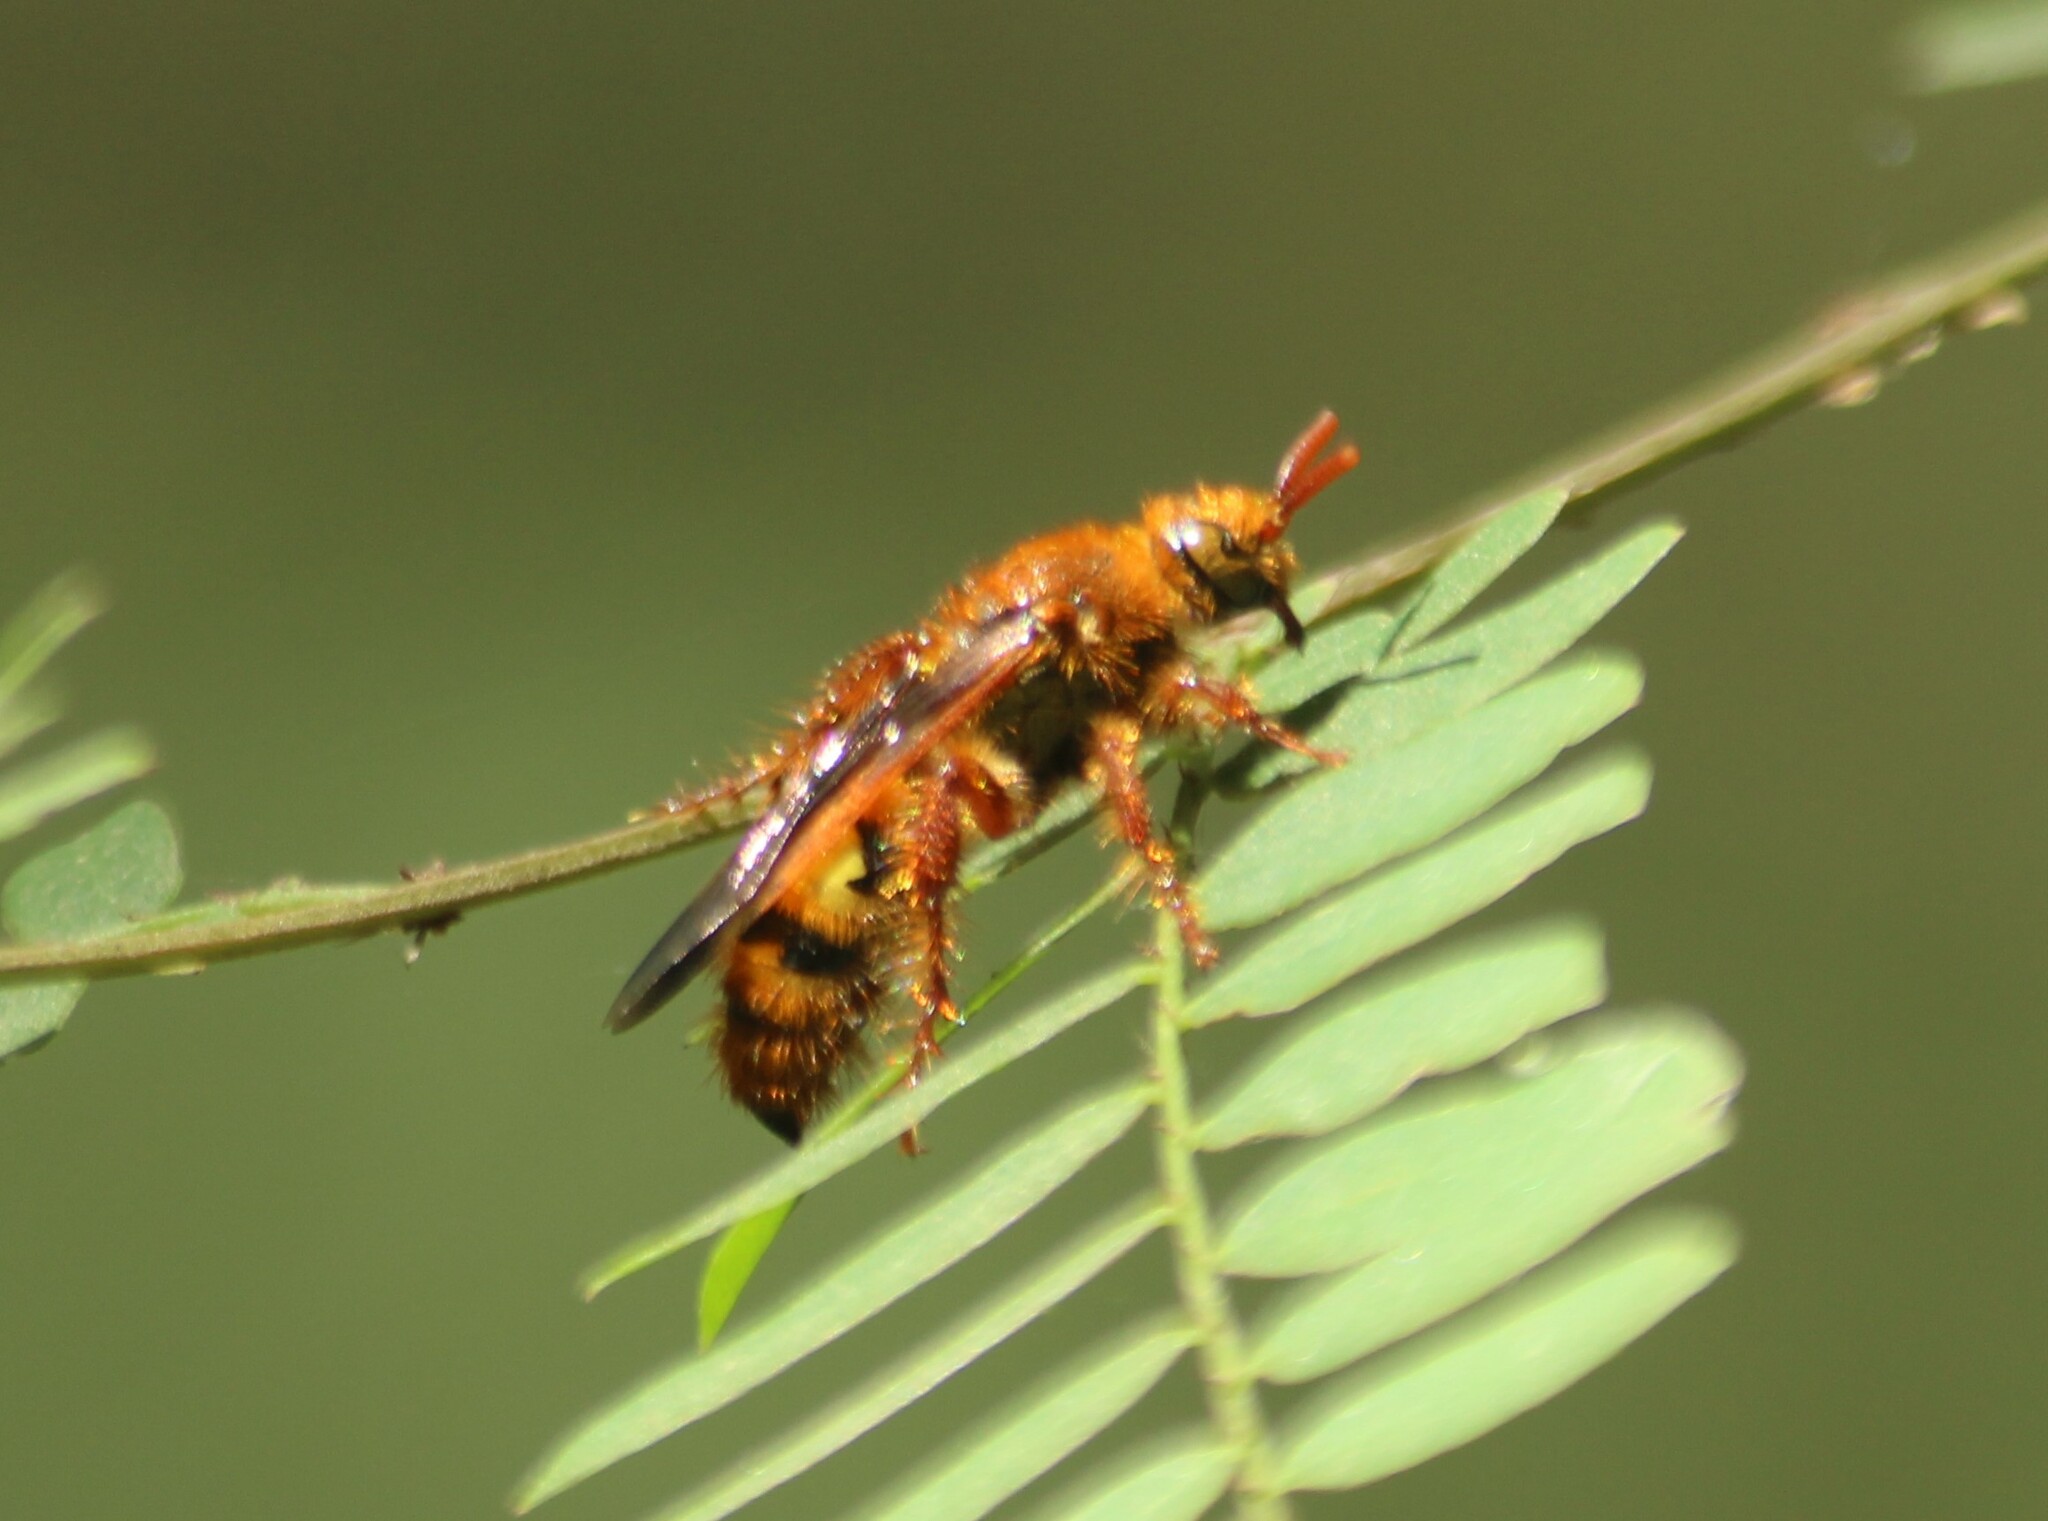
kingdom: Animalia
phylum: Arthropoda
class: Insecta
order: Hymenoptera
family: Scoliidae
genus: Phalerimeris
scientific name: Phalerimeris
